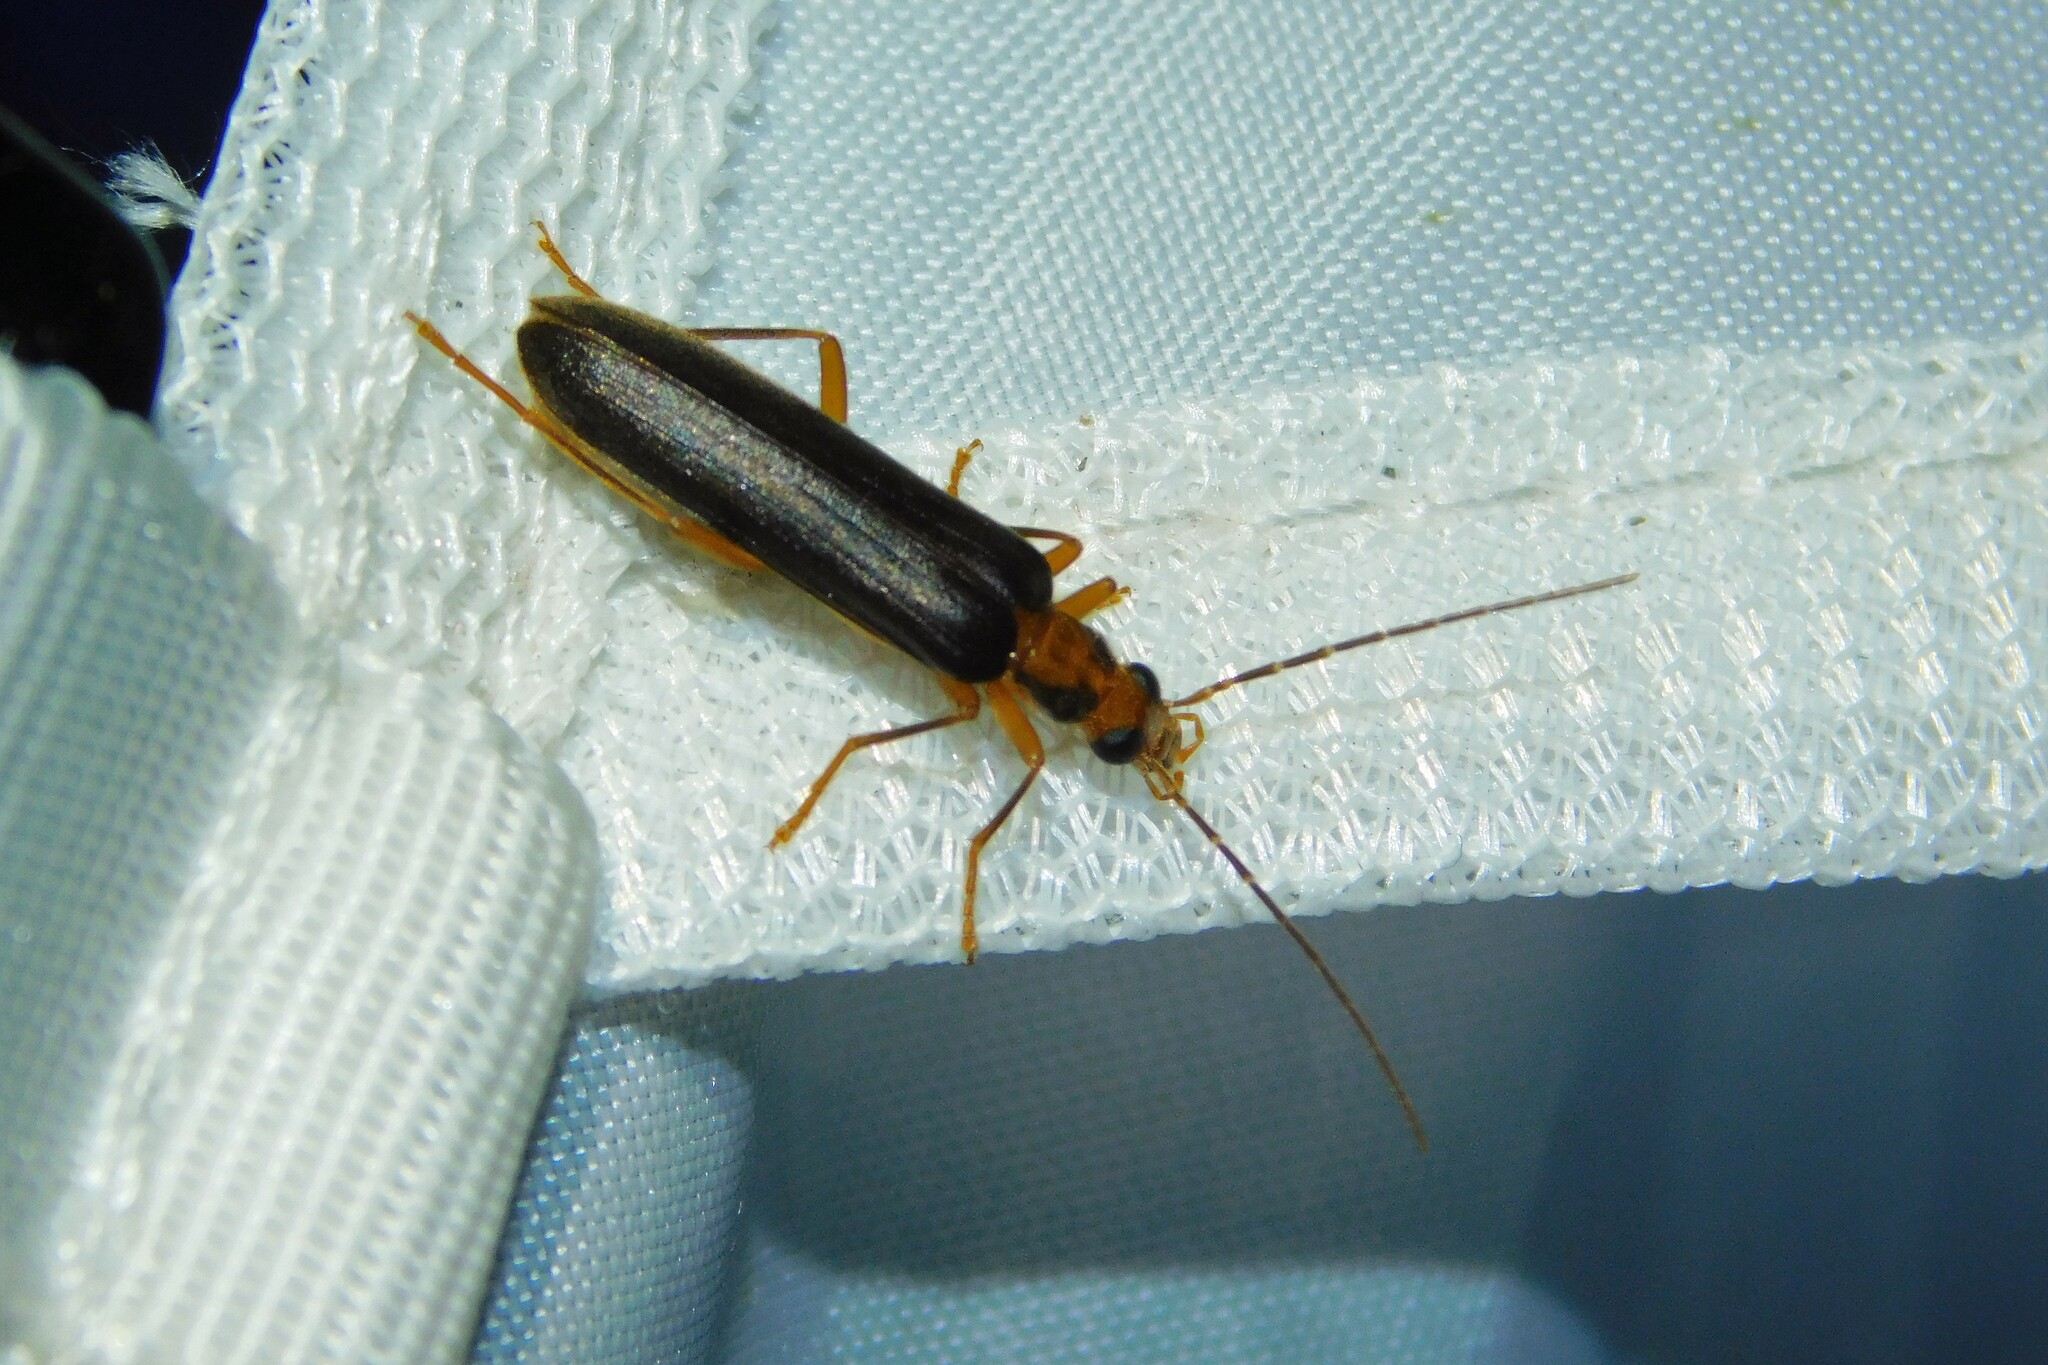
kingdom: Animalia
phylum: Arthropoda
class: Insecta
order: Coleoptera
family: Oedemeridae
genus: Nacerdes
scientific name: Nacerdes carniolica
